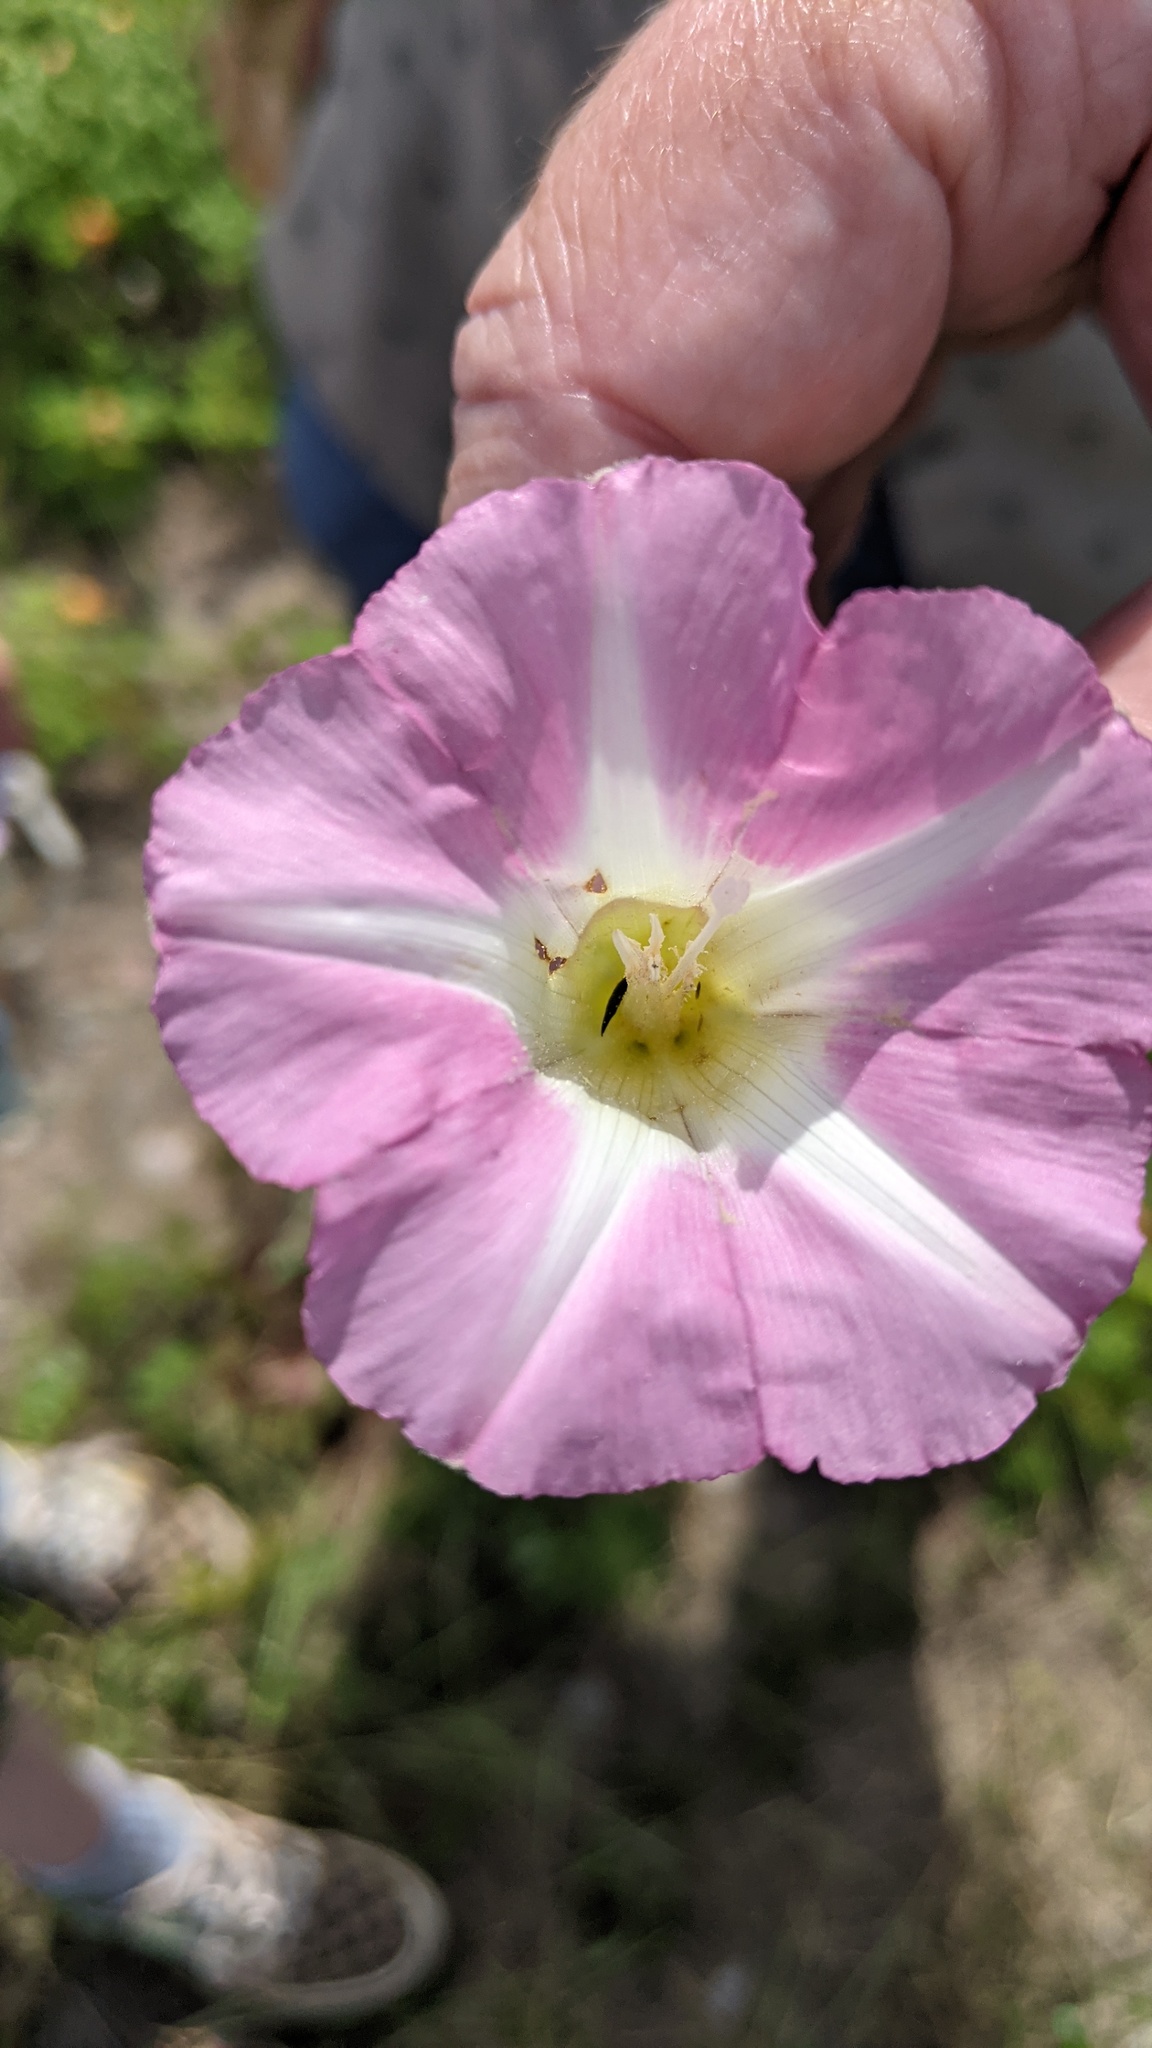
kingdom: Plantae
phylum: Tracheophyta
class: Magnoliopsida
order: Solanales
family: Convolvulaceae
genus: Calystegia
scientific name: Calystegia sepium
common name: Hedge bindweed
